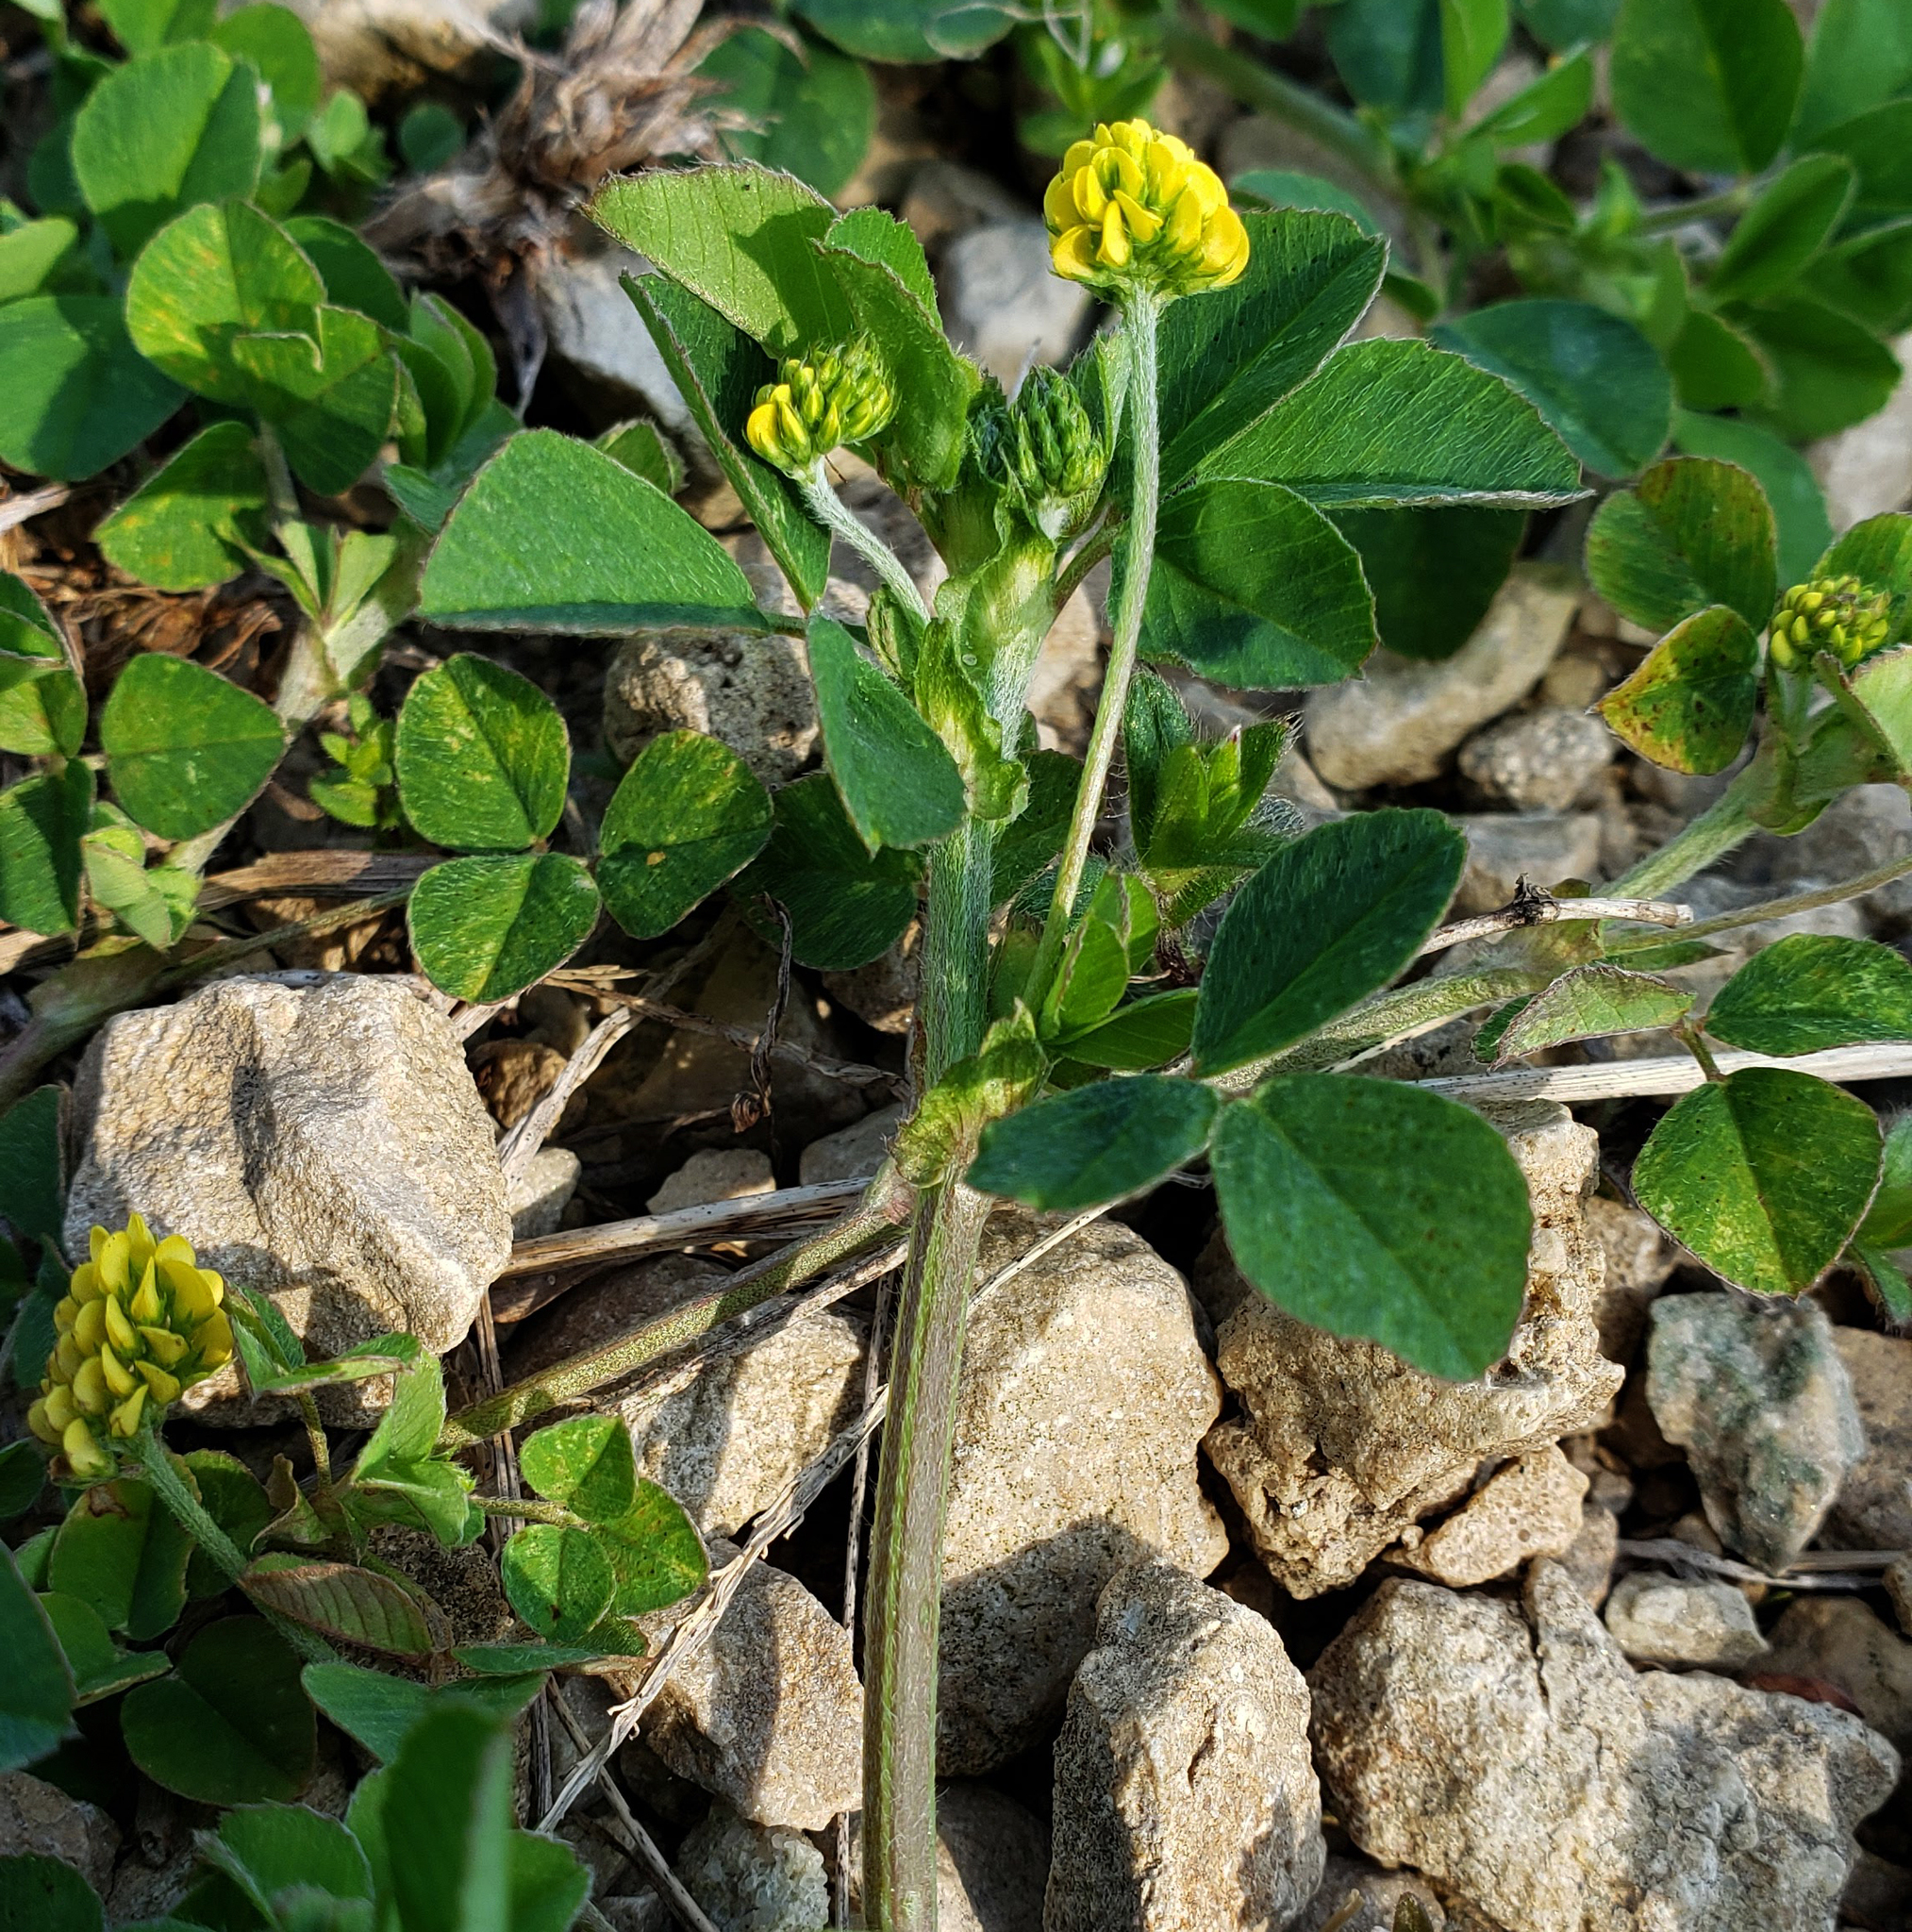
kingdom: Plantae
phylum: Tracheophyta
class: Magnoliopsida
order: Fabales
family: Fabaceae
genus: Medicago
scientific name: Medicago lupulina
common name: Black medick
